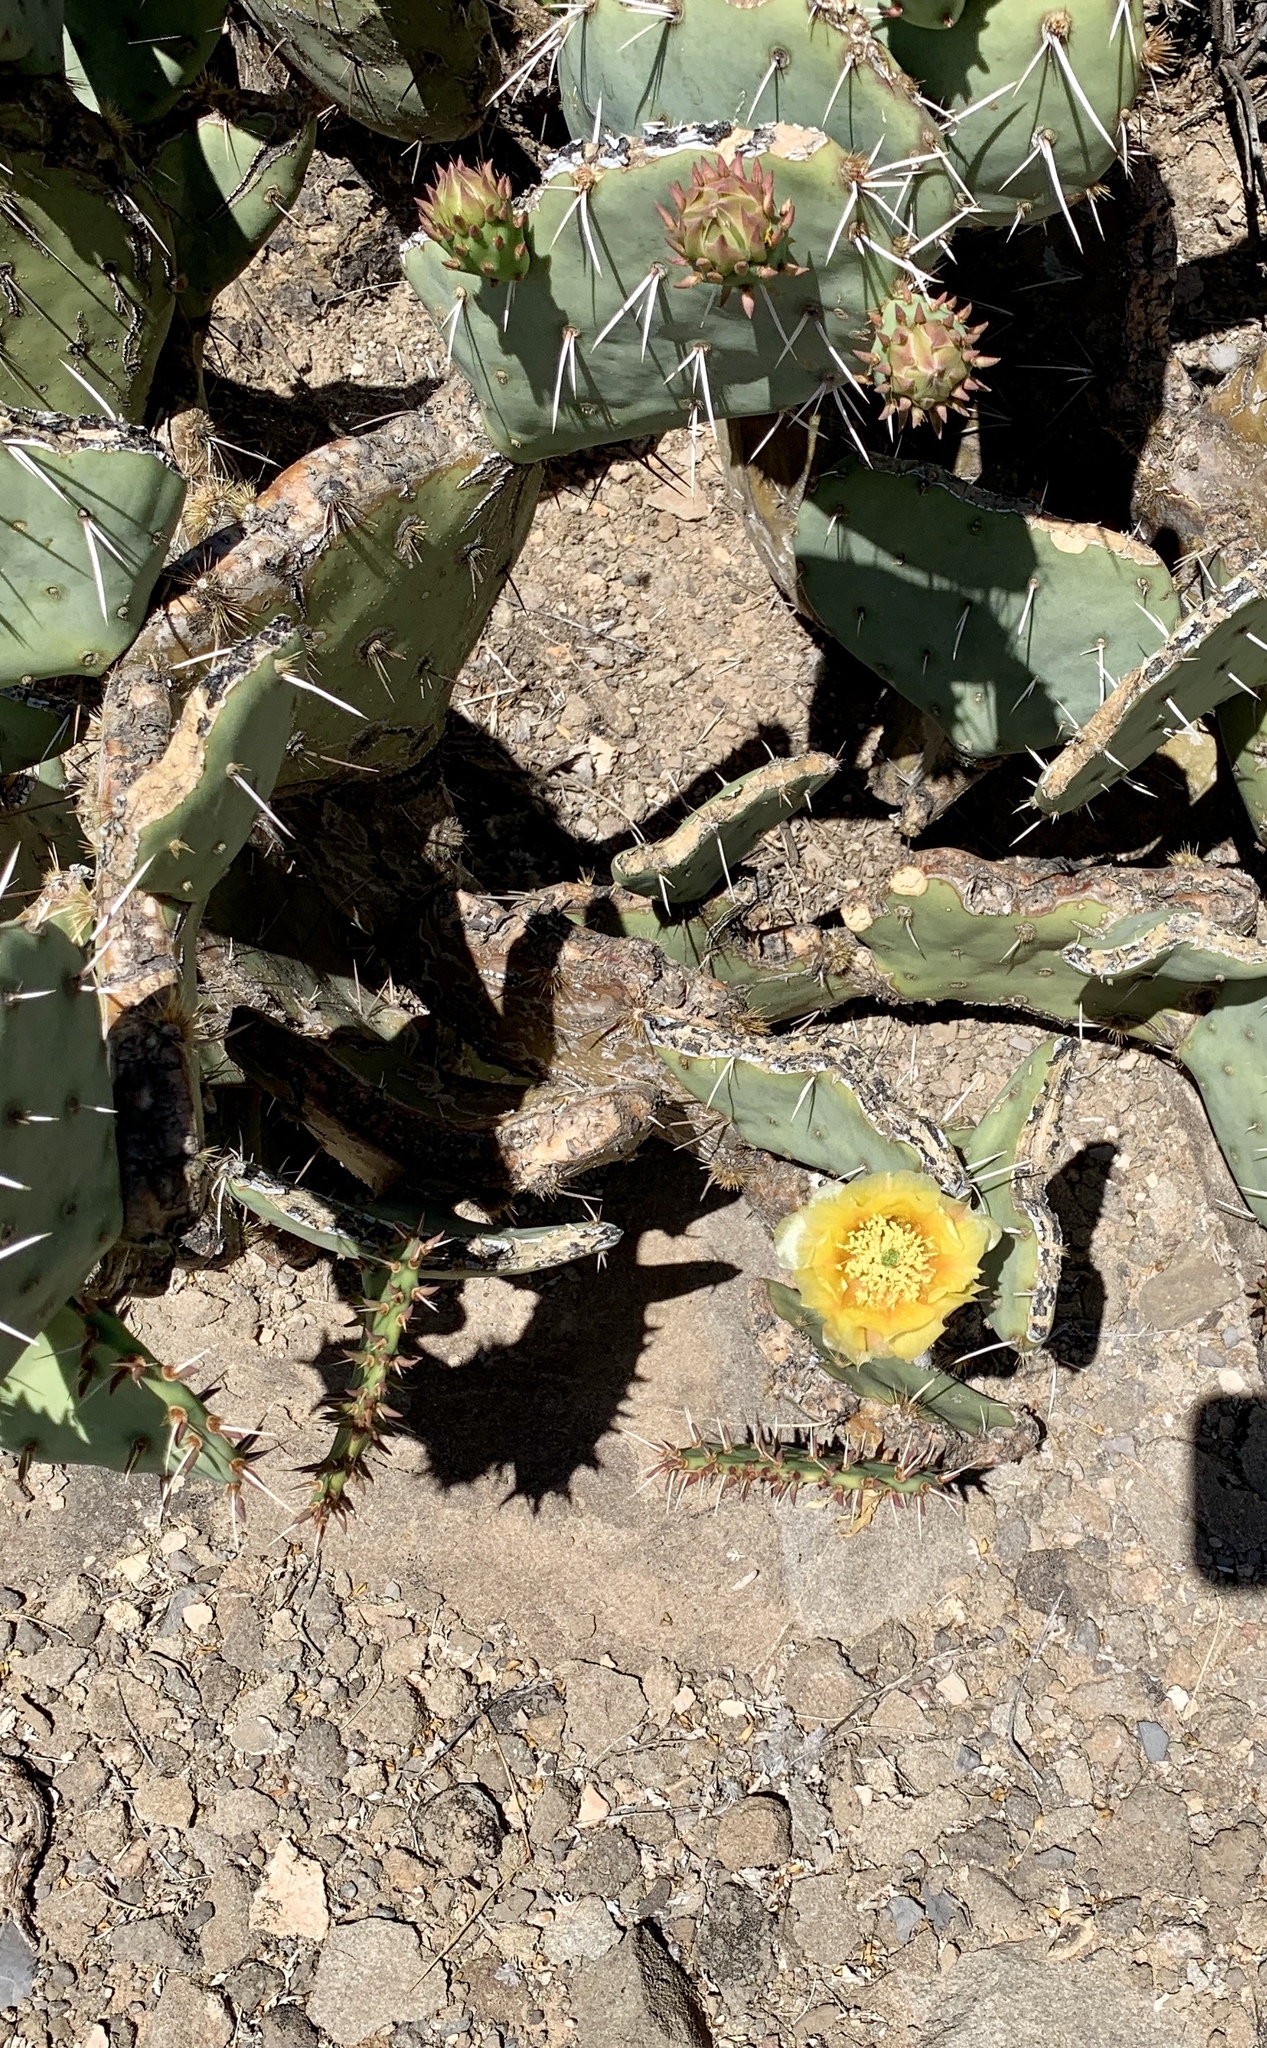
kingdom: Plantae
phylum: Tracheophyta
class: Magnoliopsida
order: Caryophyllales
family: Cactaceae
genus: Opuntia
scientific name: Opuntia engelmannii
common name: Cactus-apple
